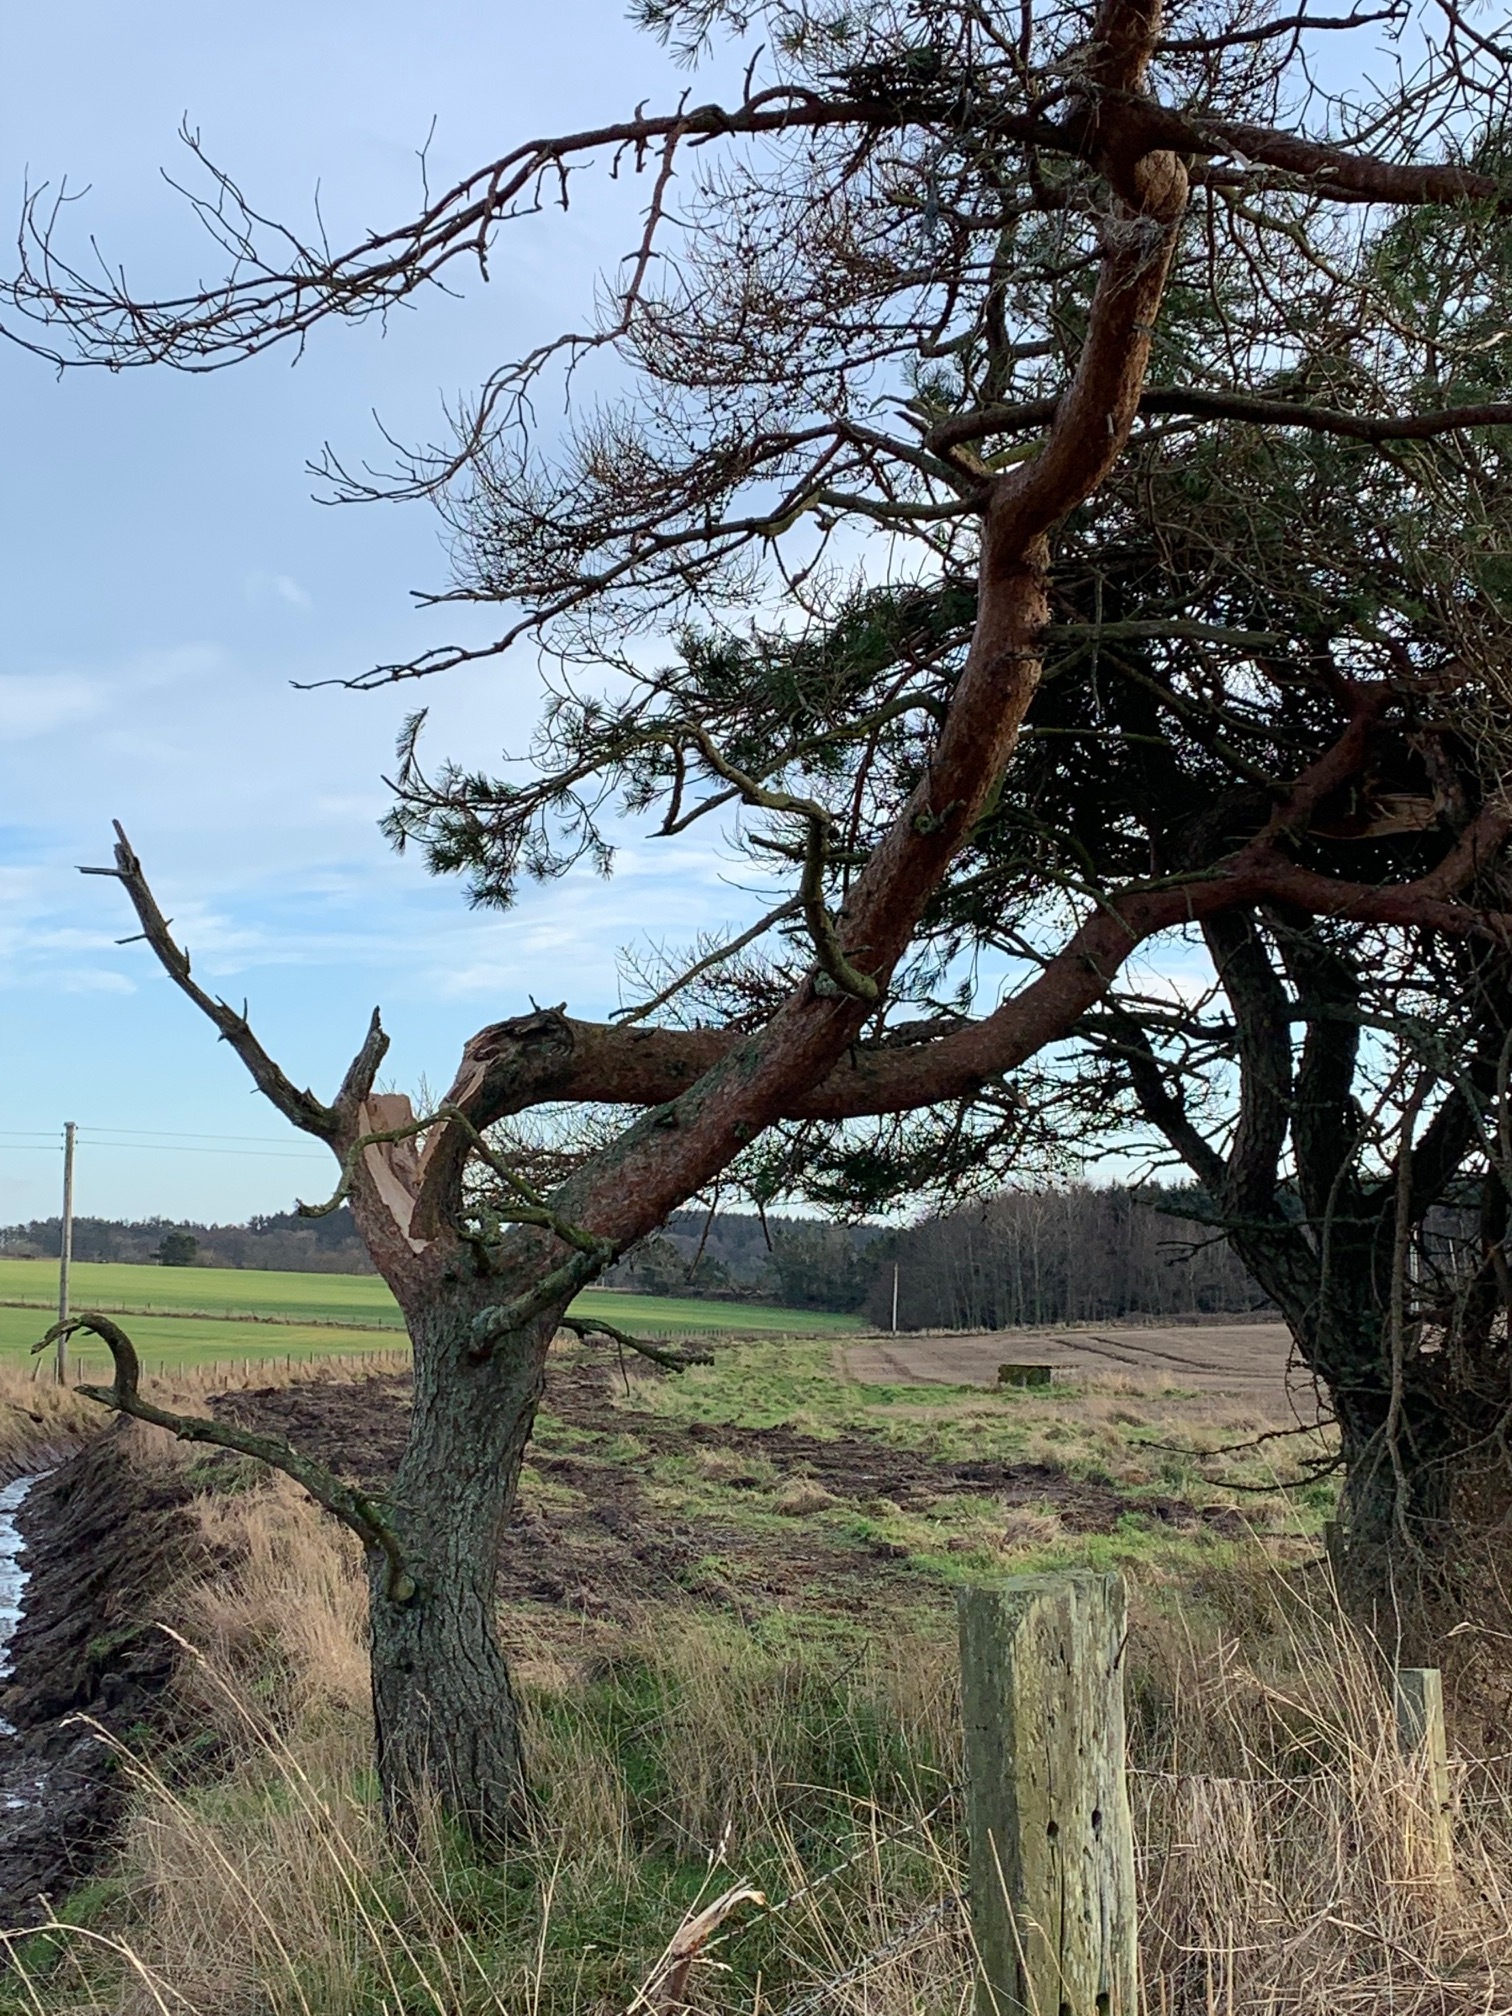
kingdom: Plantae
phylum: Tracheophyta
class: Pinopsida
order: Pinales
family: Pinaceae
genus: Pinus
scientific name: Pinus sylvestris
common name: Scots pine
